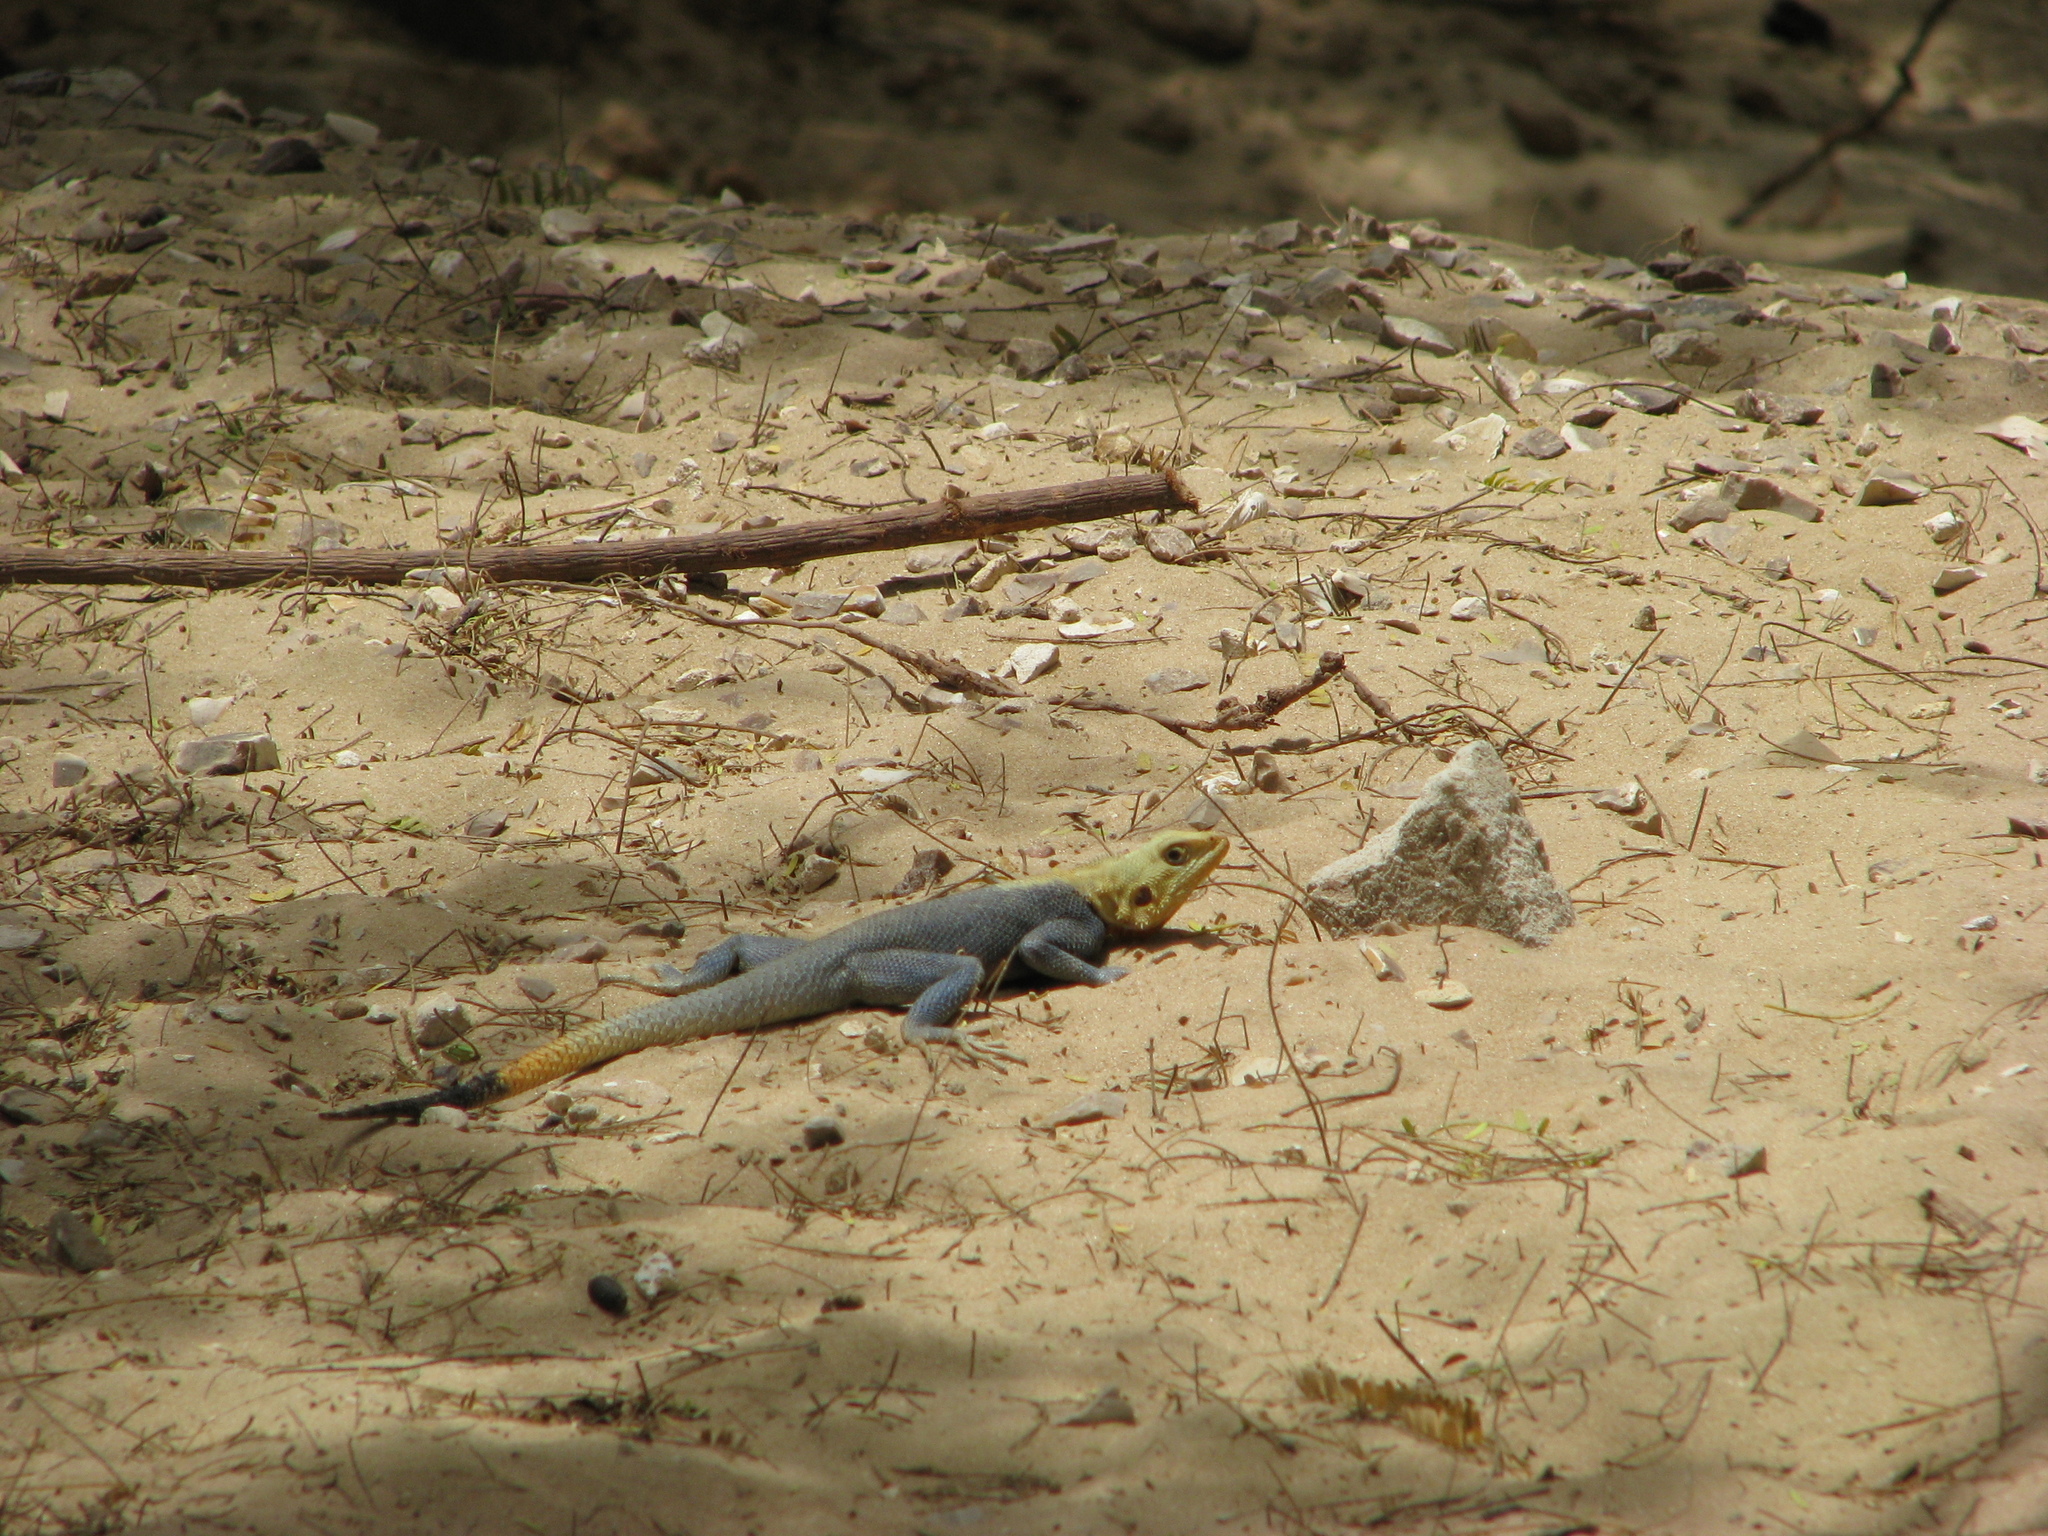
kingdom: Animalia
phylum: Chordata
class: Squamata
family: Agamidae
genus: Agama
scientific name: Agama agama
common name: Common agama
